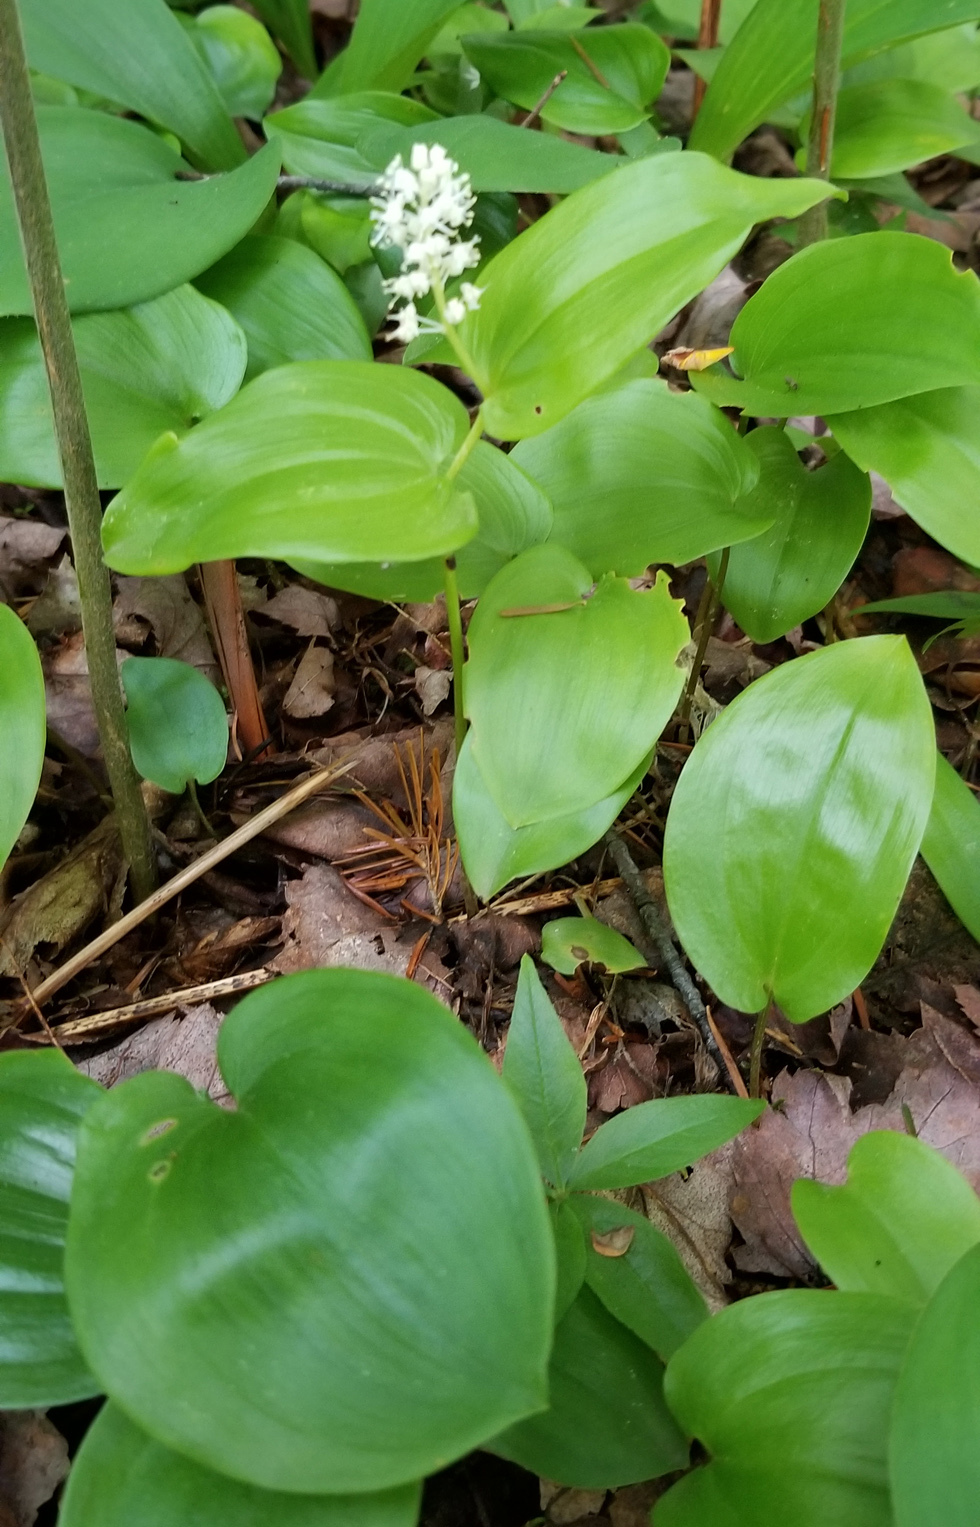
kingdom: Plantae
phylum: Tracheophyta
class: Liliopsida
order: Asparagales
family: Asparagaceae
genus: Maianthemum
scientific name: Maianthemum canadense
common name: False lily-of-the-valley
